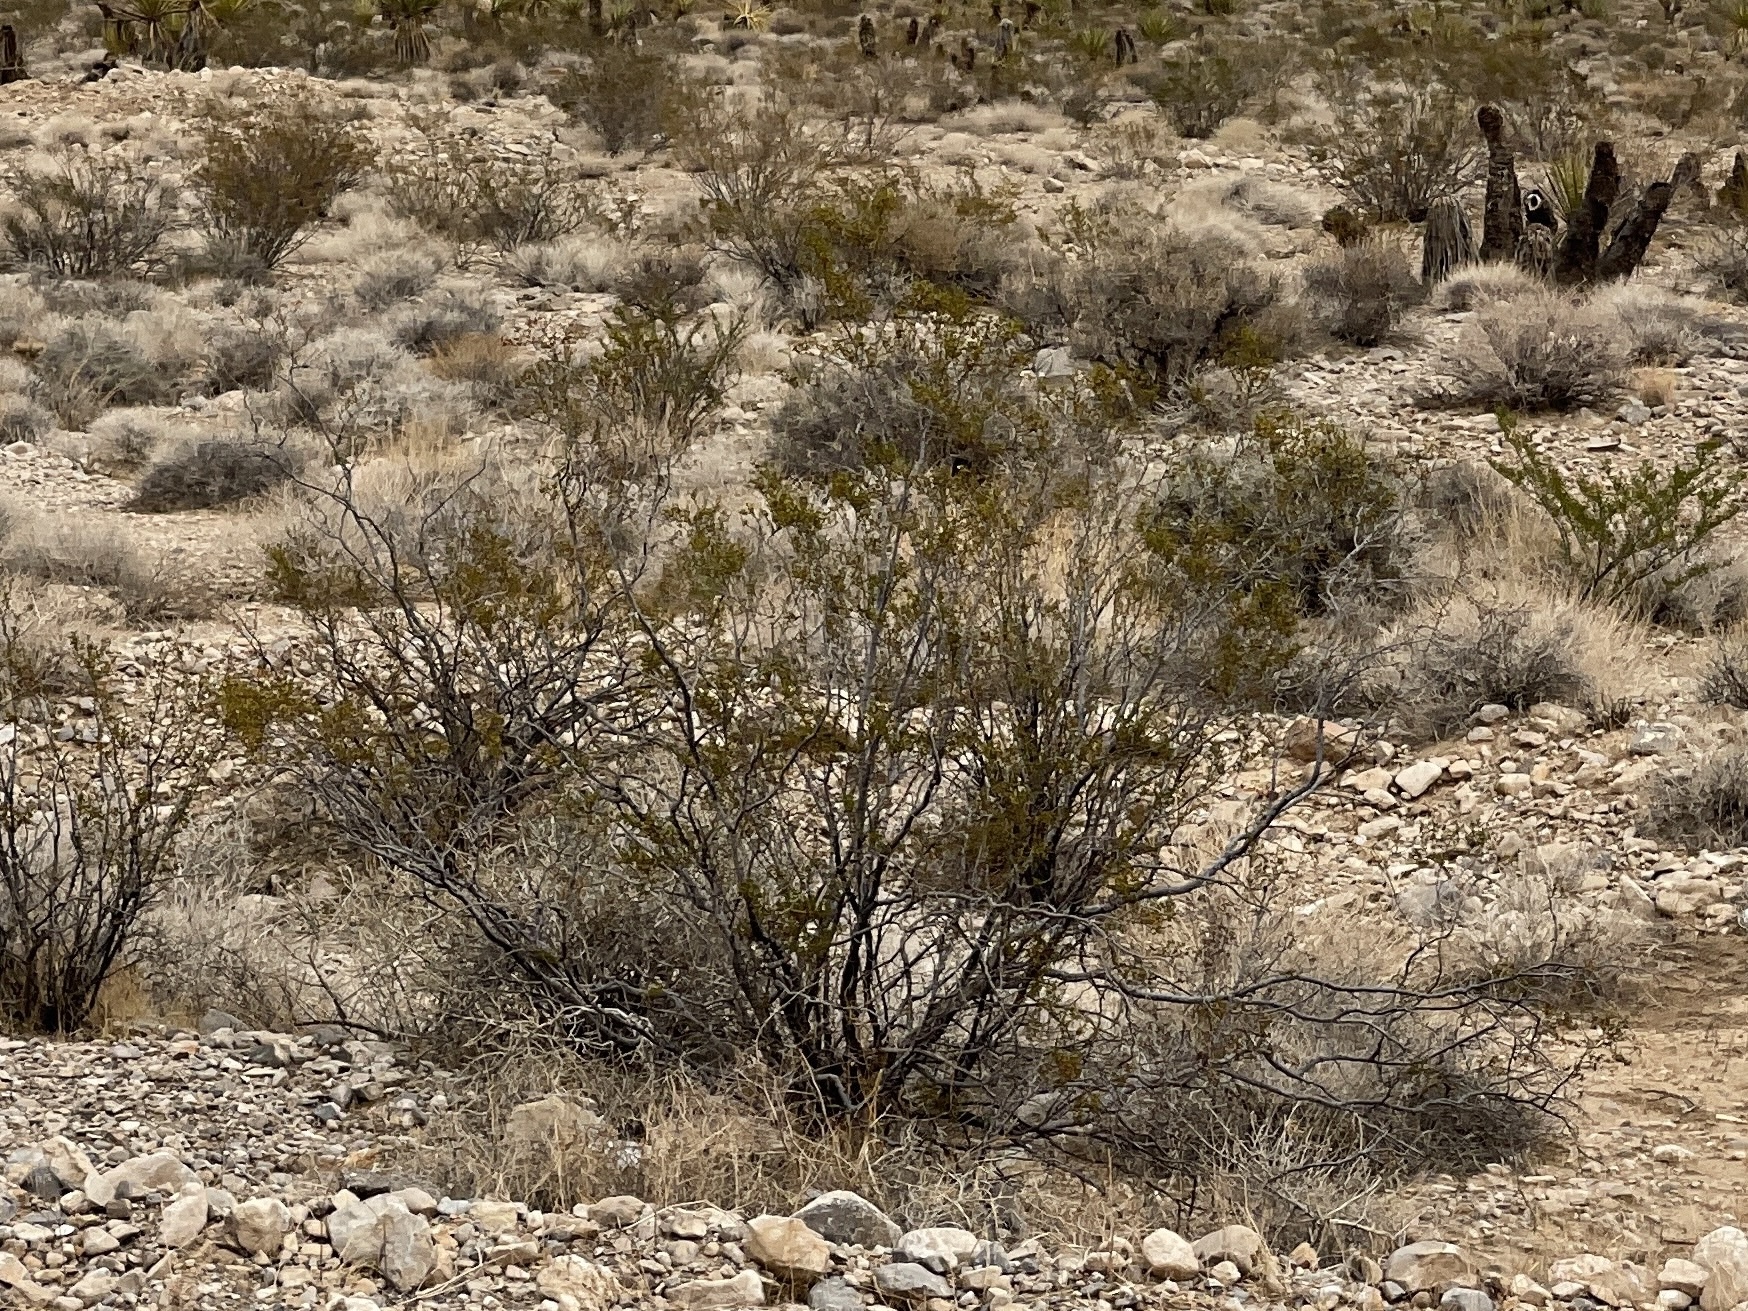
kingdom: Plantae
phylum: Tracheophyta
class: Magnoliopsida
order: Zygophyllales
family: Zygophyllaceae
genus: Larrea
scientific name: Larrea tridentata
